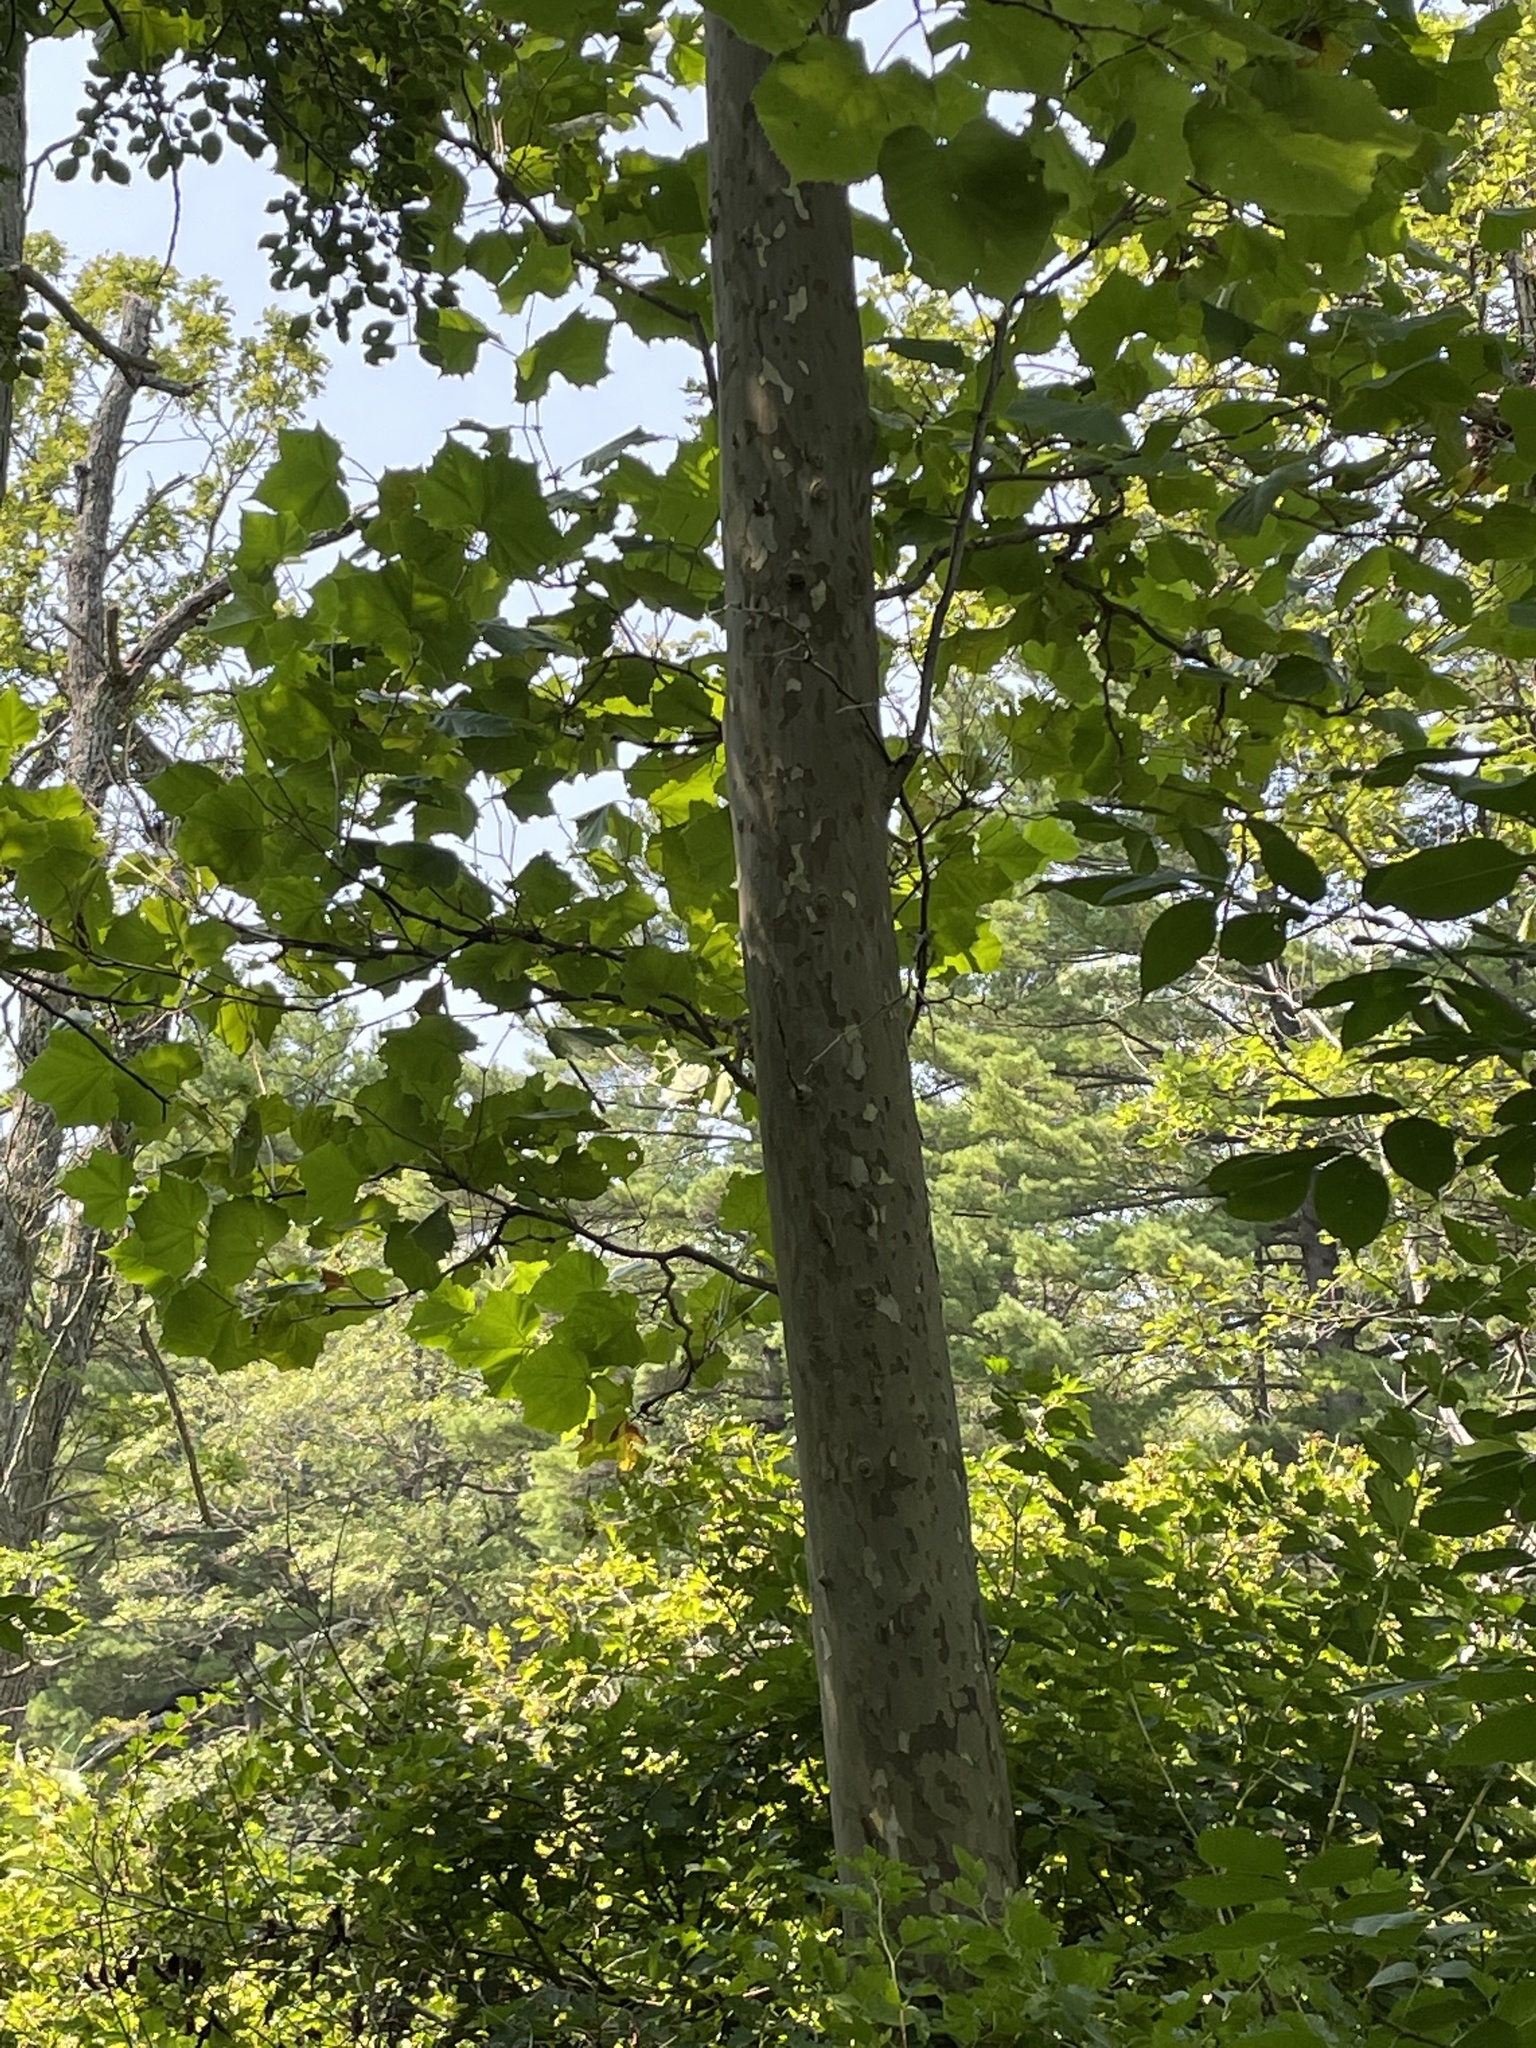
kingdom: Plantae
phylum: Tracheophyta
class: Magnoliopsida
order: Proteales
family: Platanaceae
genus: Platanus
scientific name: Platanus occidentalis
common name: American sycamore
